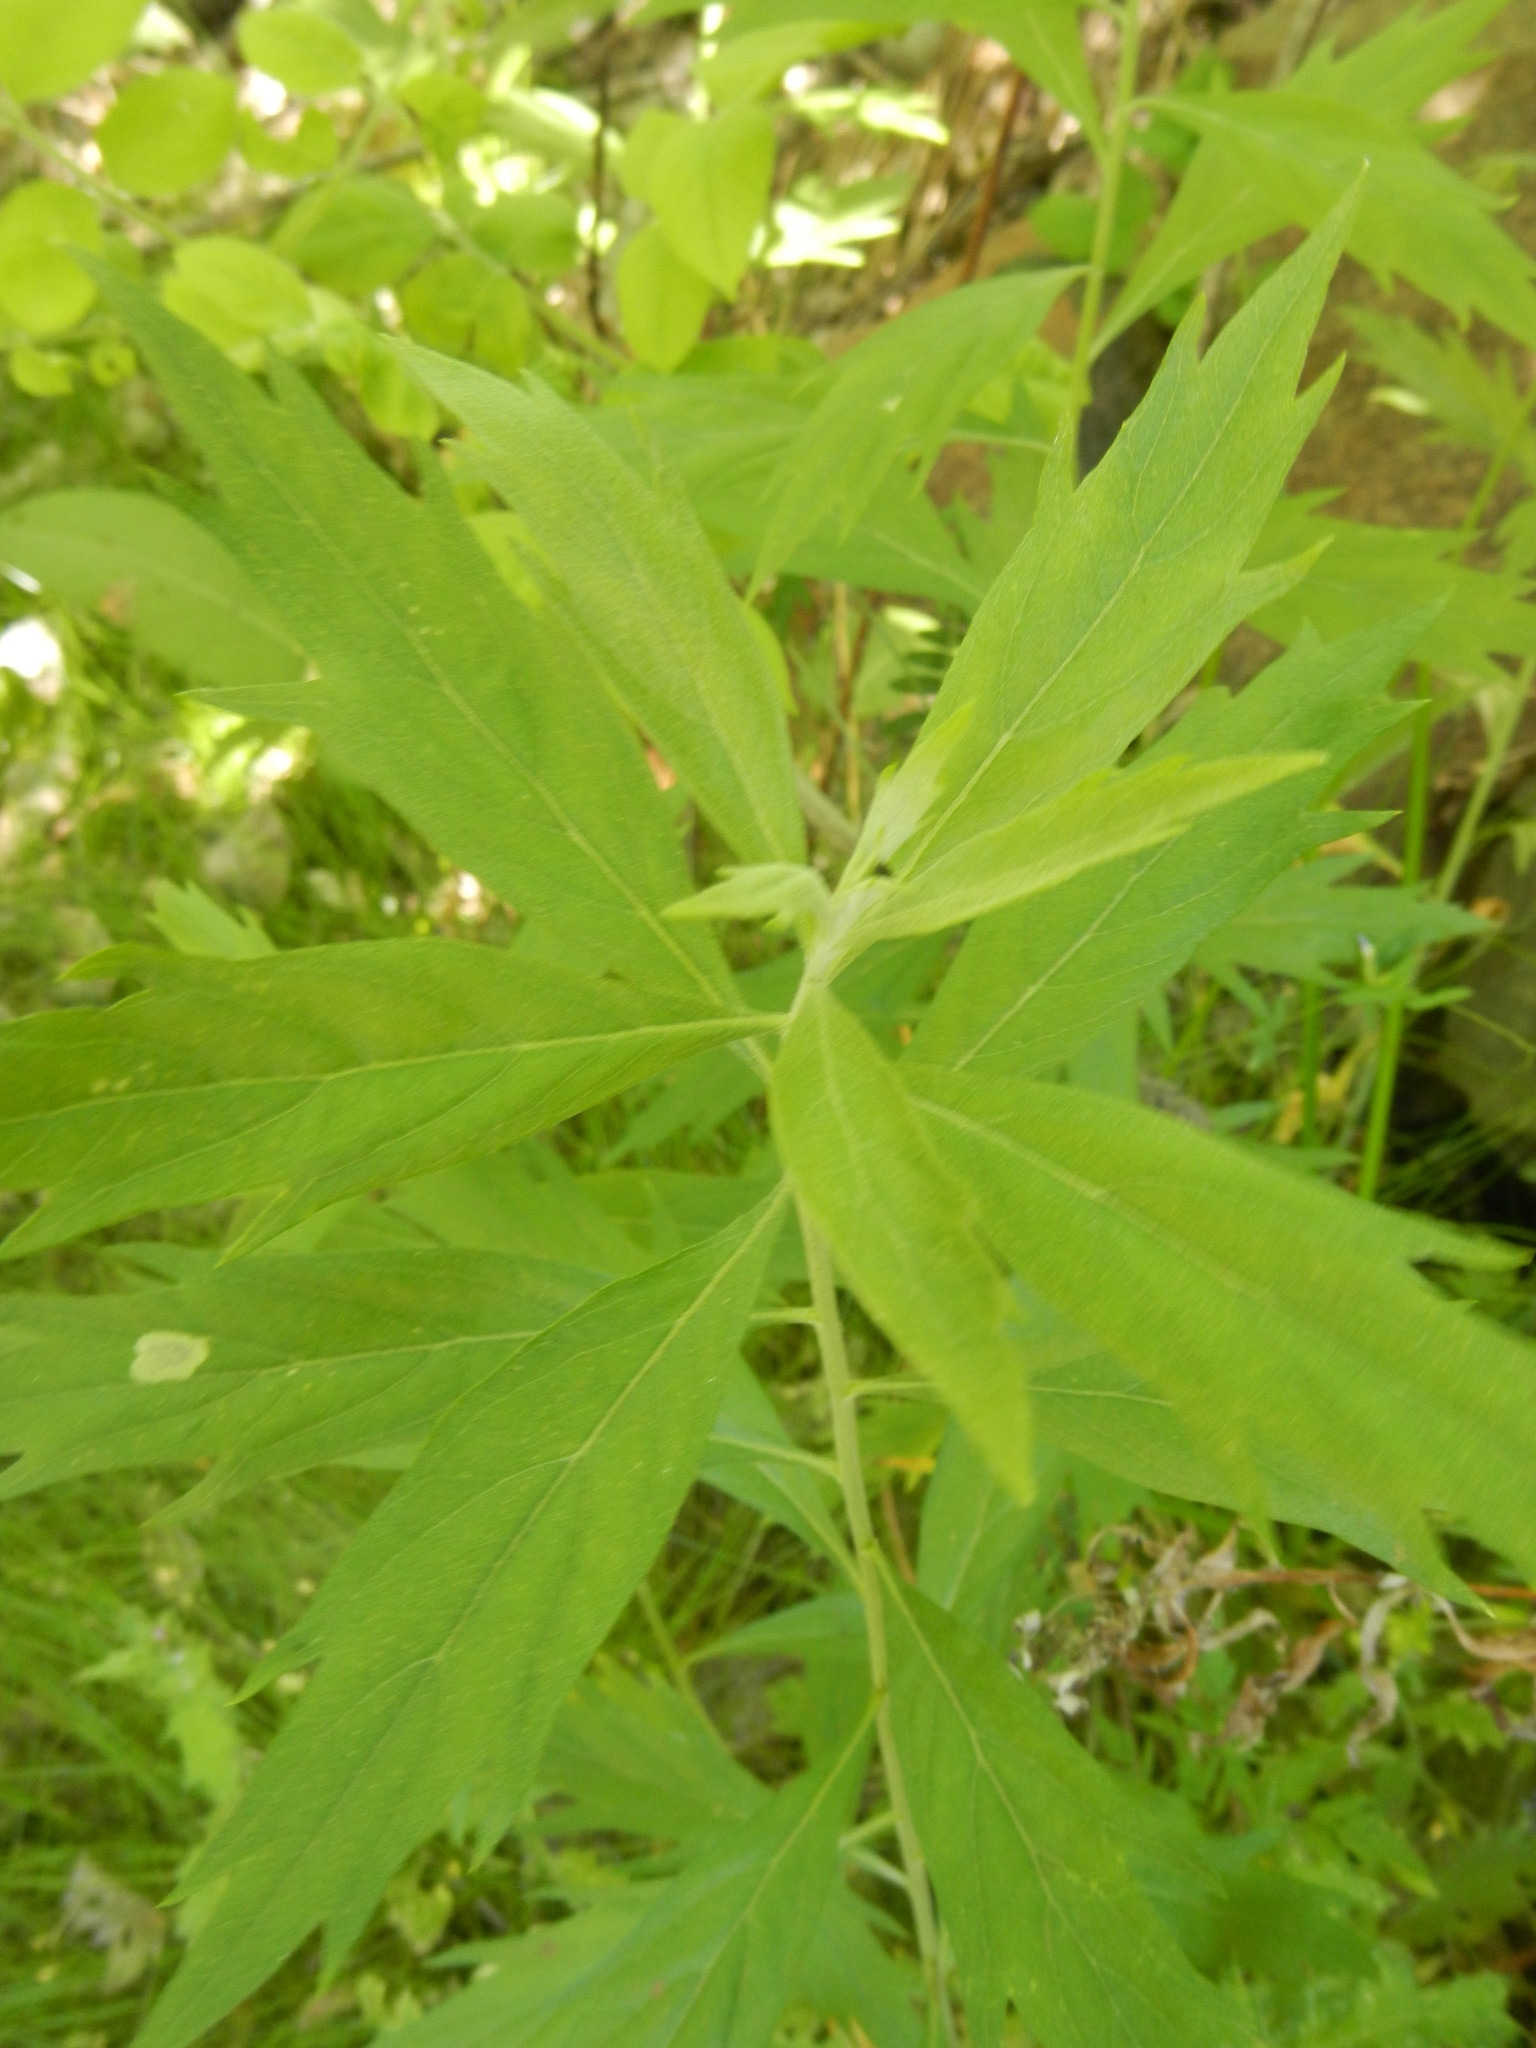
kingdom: Plantae
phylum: Tracheophyta
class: Magnoliopsida
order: Asterales
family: Asteraceae
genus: Artemisia
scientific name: Artemisia douglasiana
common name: Northwest mugwort
